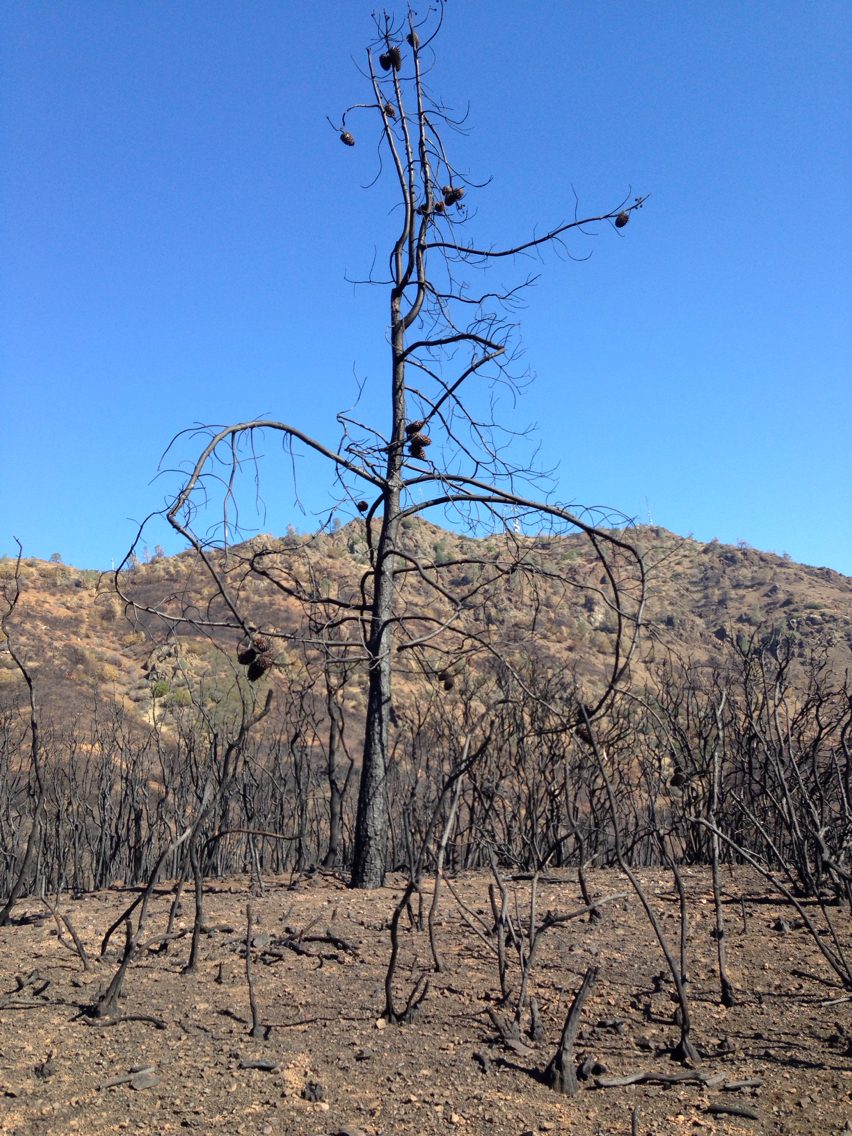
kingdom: Plantae
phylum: Tracheophyta
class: Pinopsida
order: Pinales
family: Pinaceae
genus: Pinus
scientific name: Pinus sabiniana
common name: Bull pine
